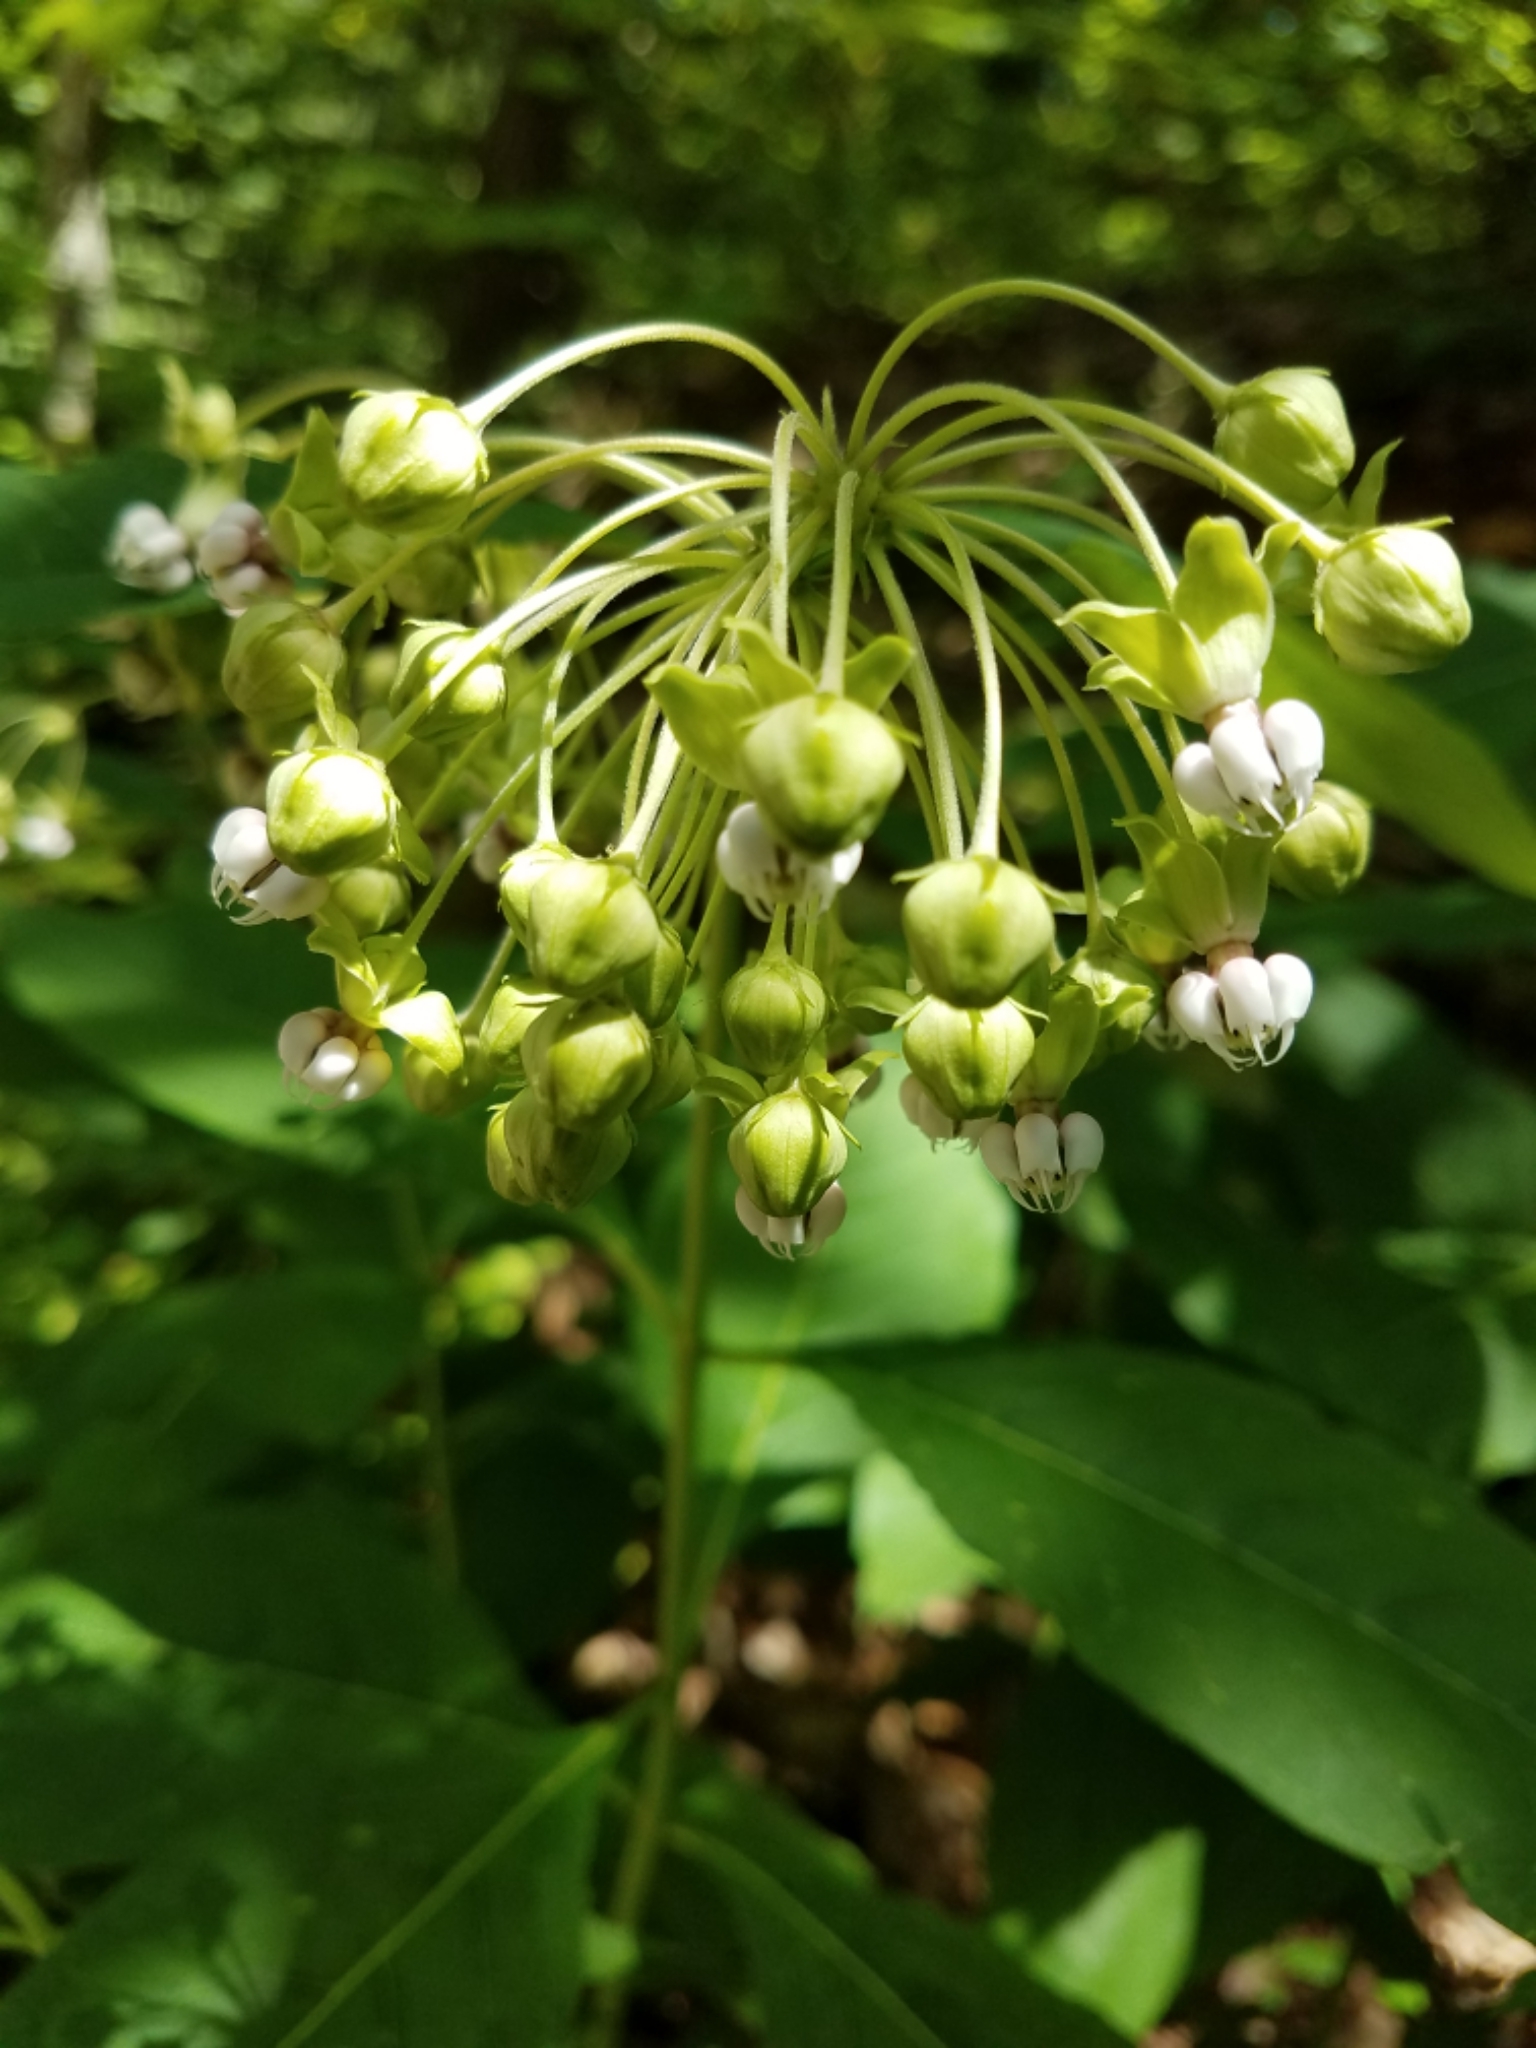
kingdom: Plantae
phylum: Tracheophyta
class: Magnoliopsida
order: Gentianales
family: Apocynaceae
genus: Asclepias
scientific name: Asclepias exaltata
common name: Poke milkweed
